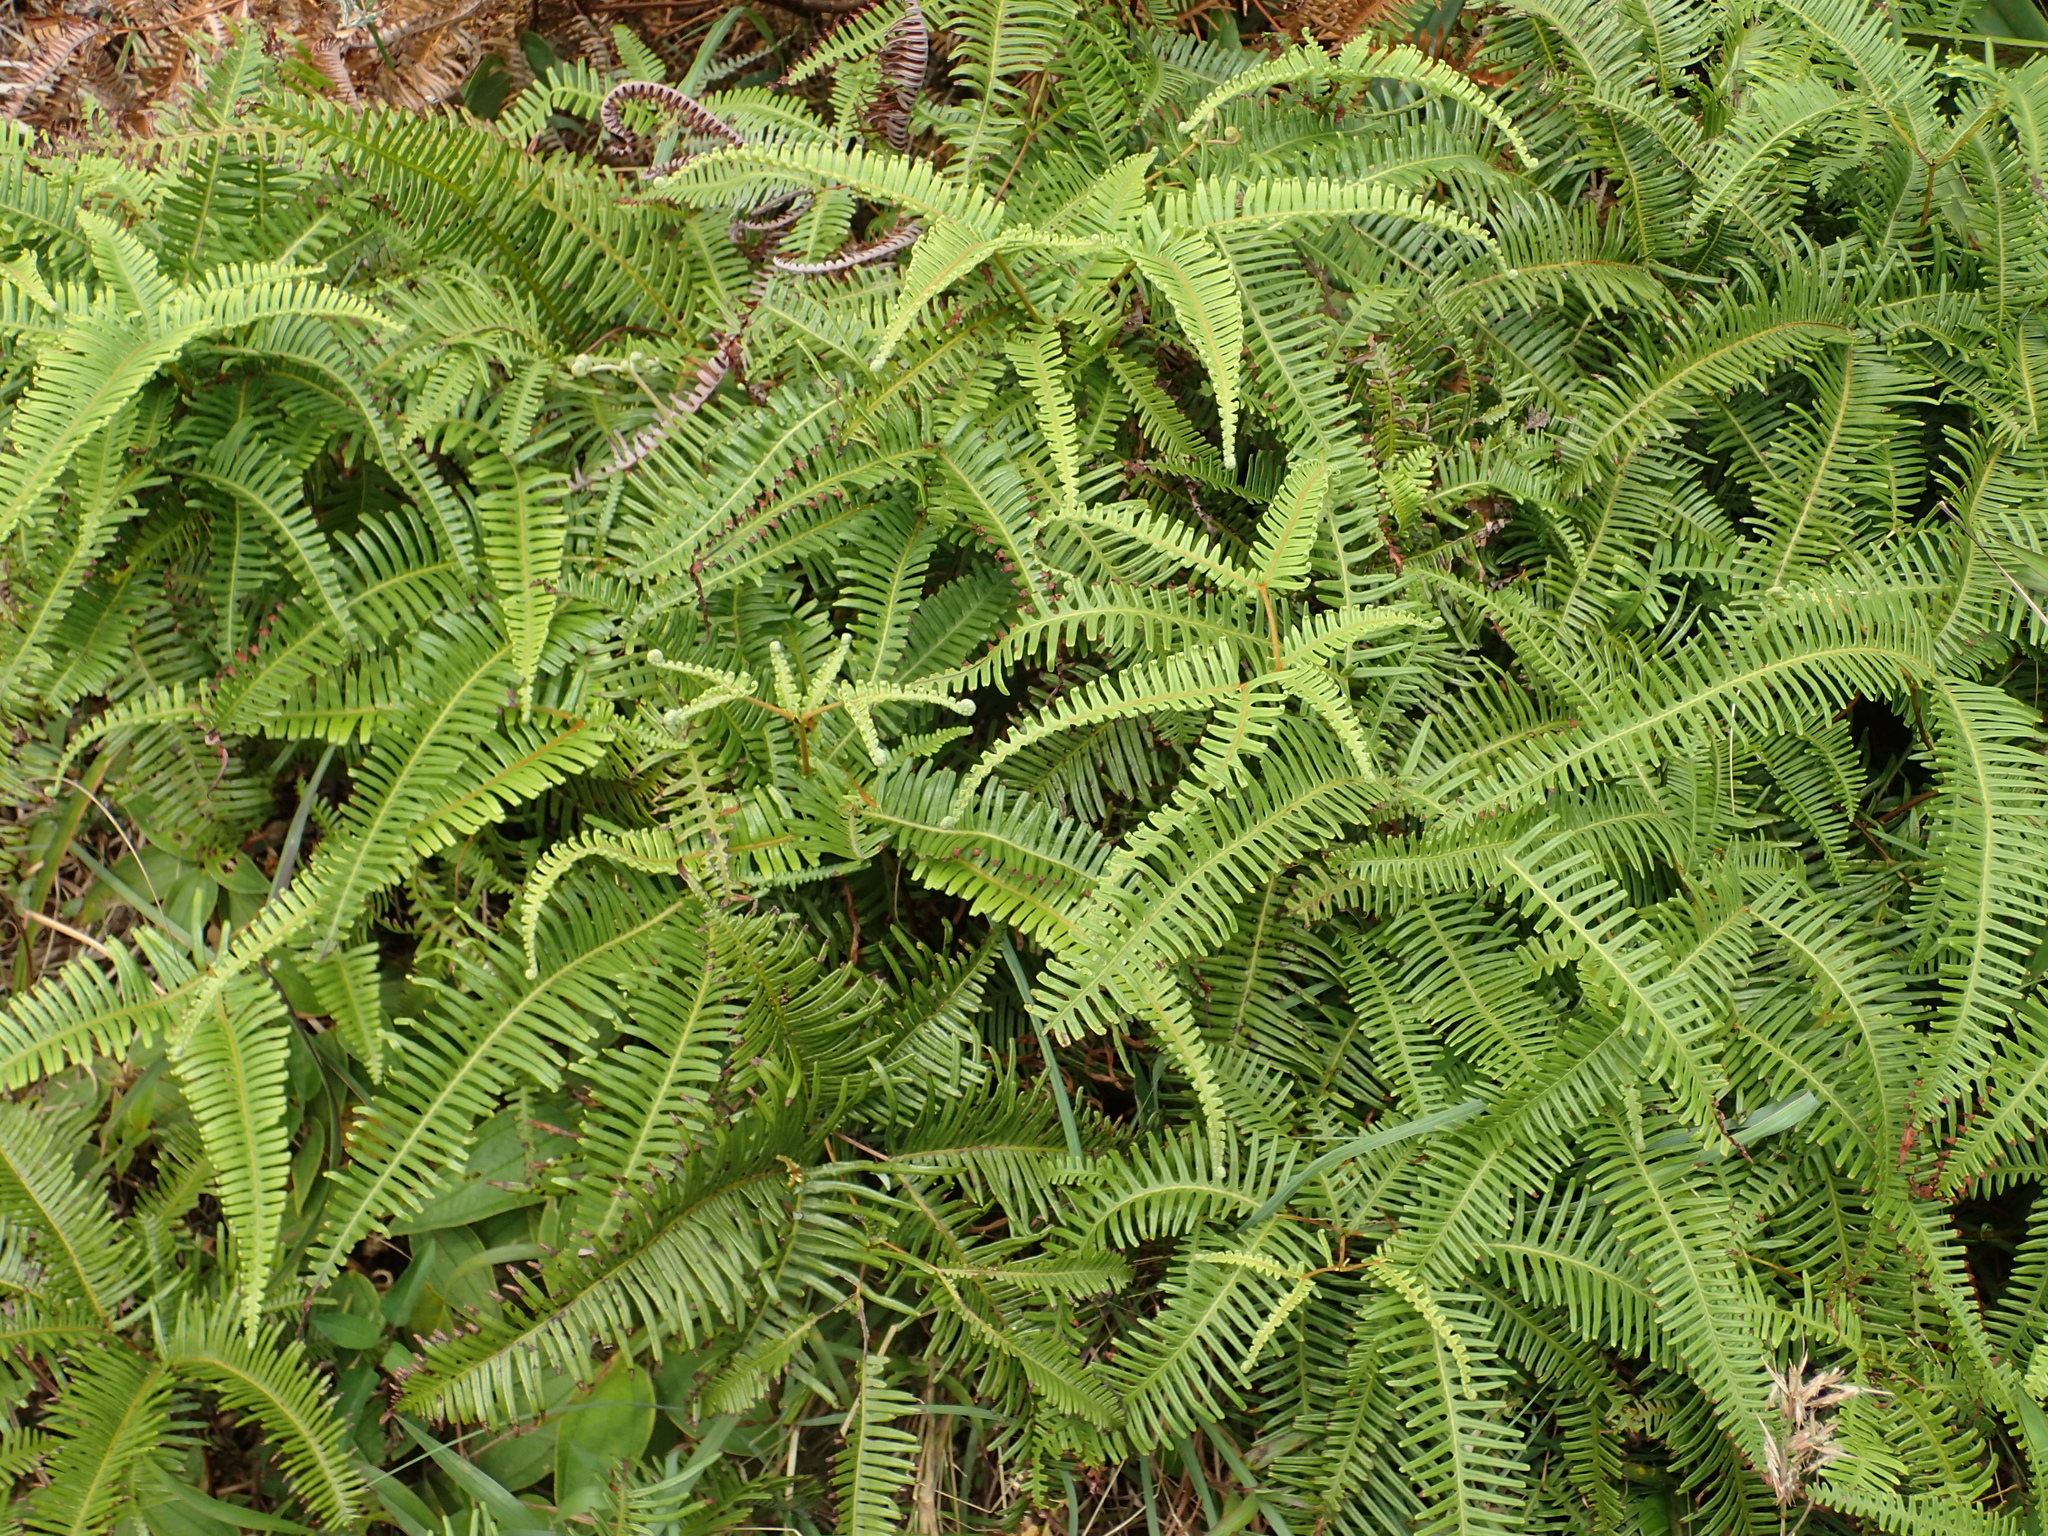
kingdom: Plantae
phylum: Tracheophyta
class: Polypodiopsida
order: Gleicheniales
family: Gleicheniaceae
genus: Dicranopteris
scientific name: Dicranopteris linearis
